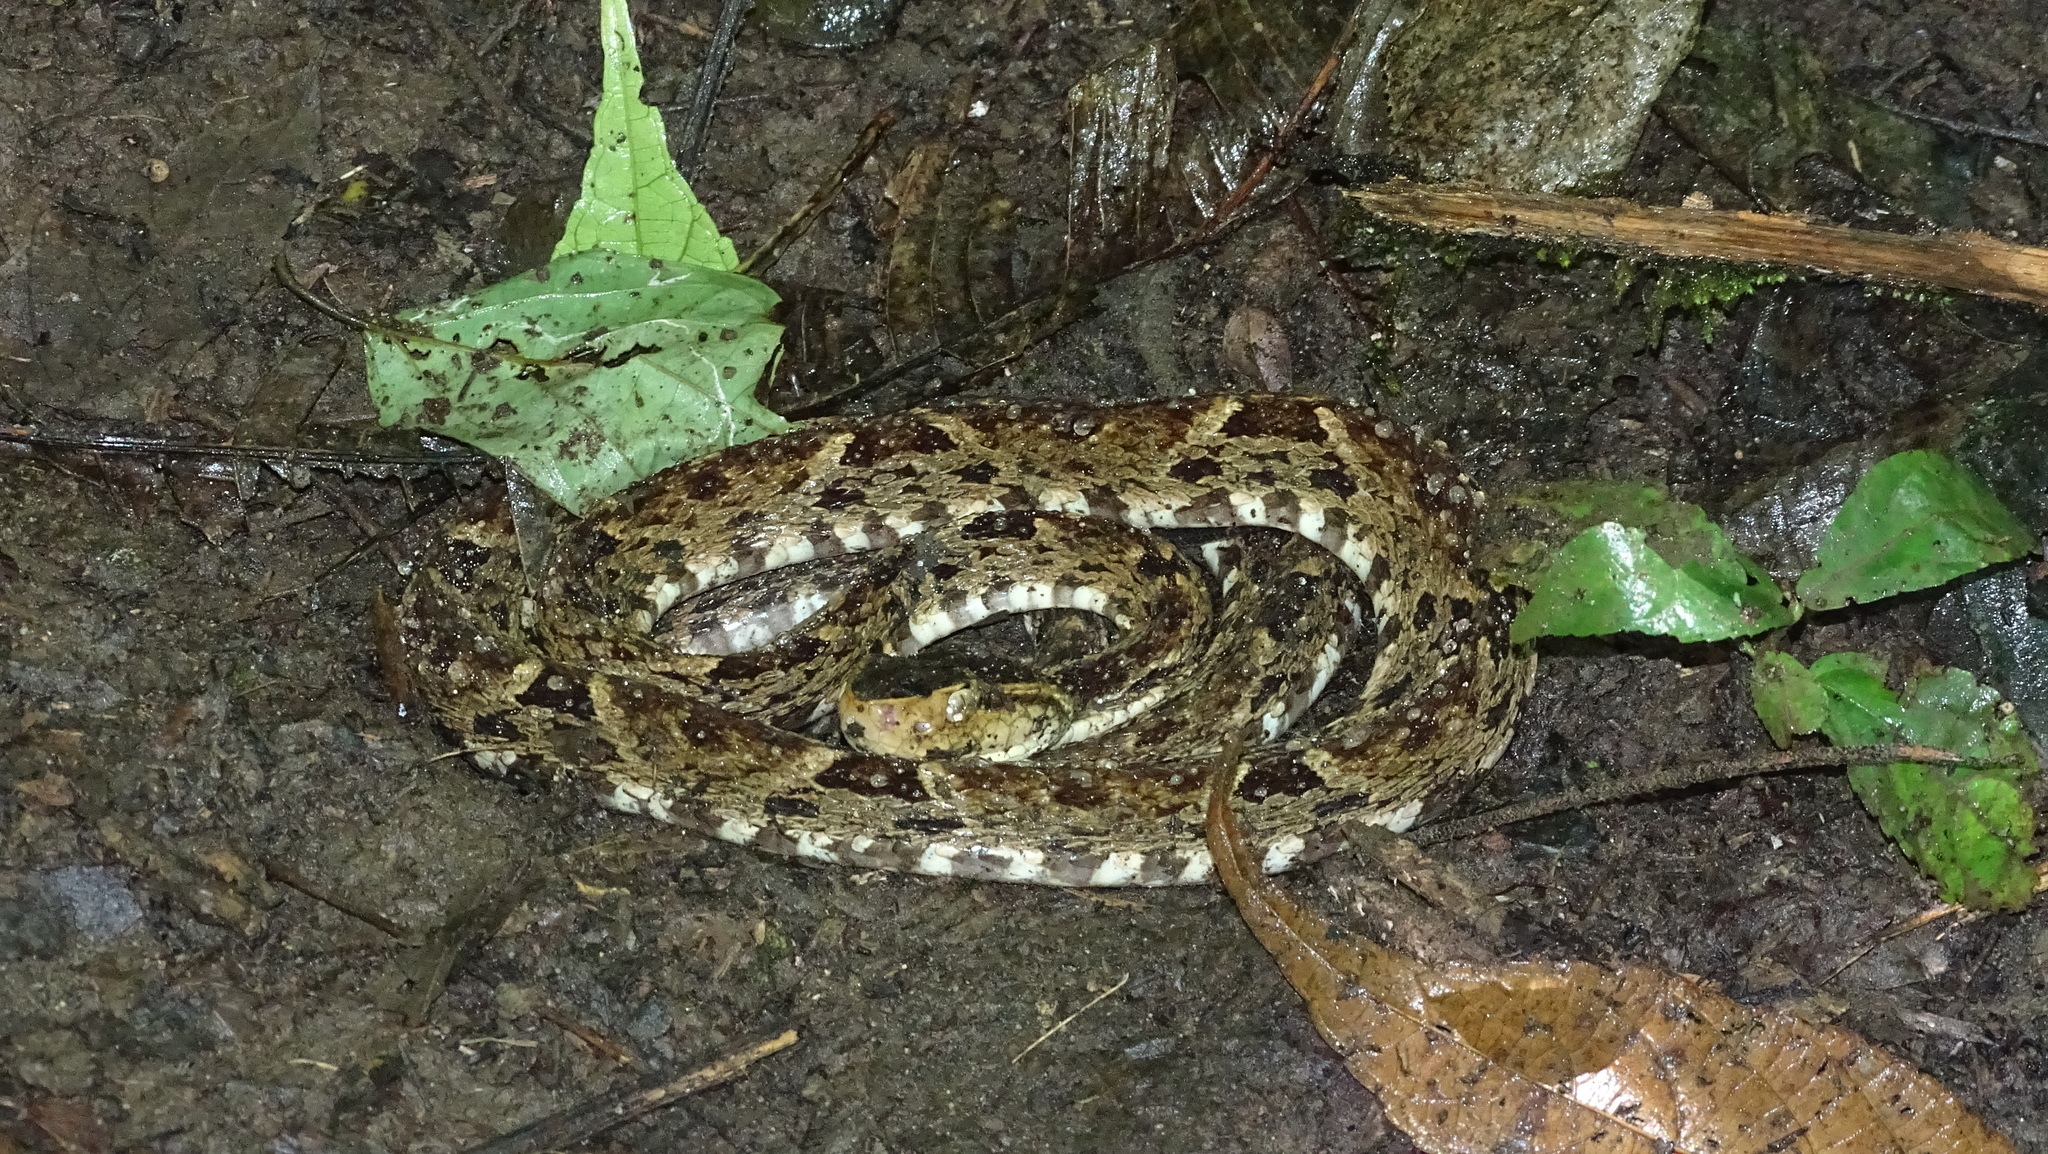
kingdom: Animalia
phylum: Chordata
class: Squamata
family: Viperidae
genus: Bothrops
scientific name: Bothrops asper
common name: Terciopelo
